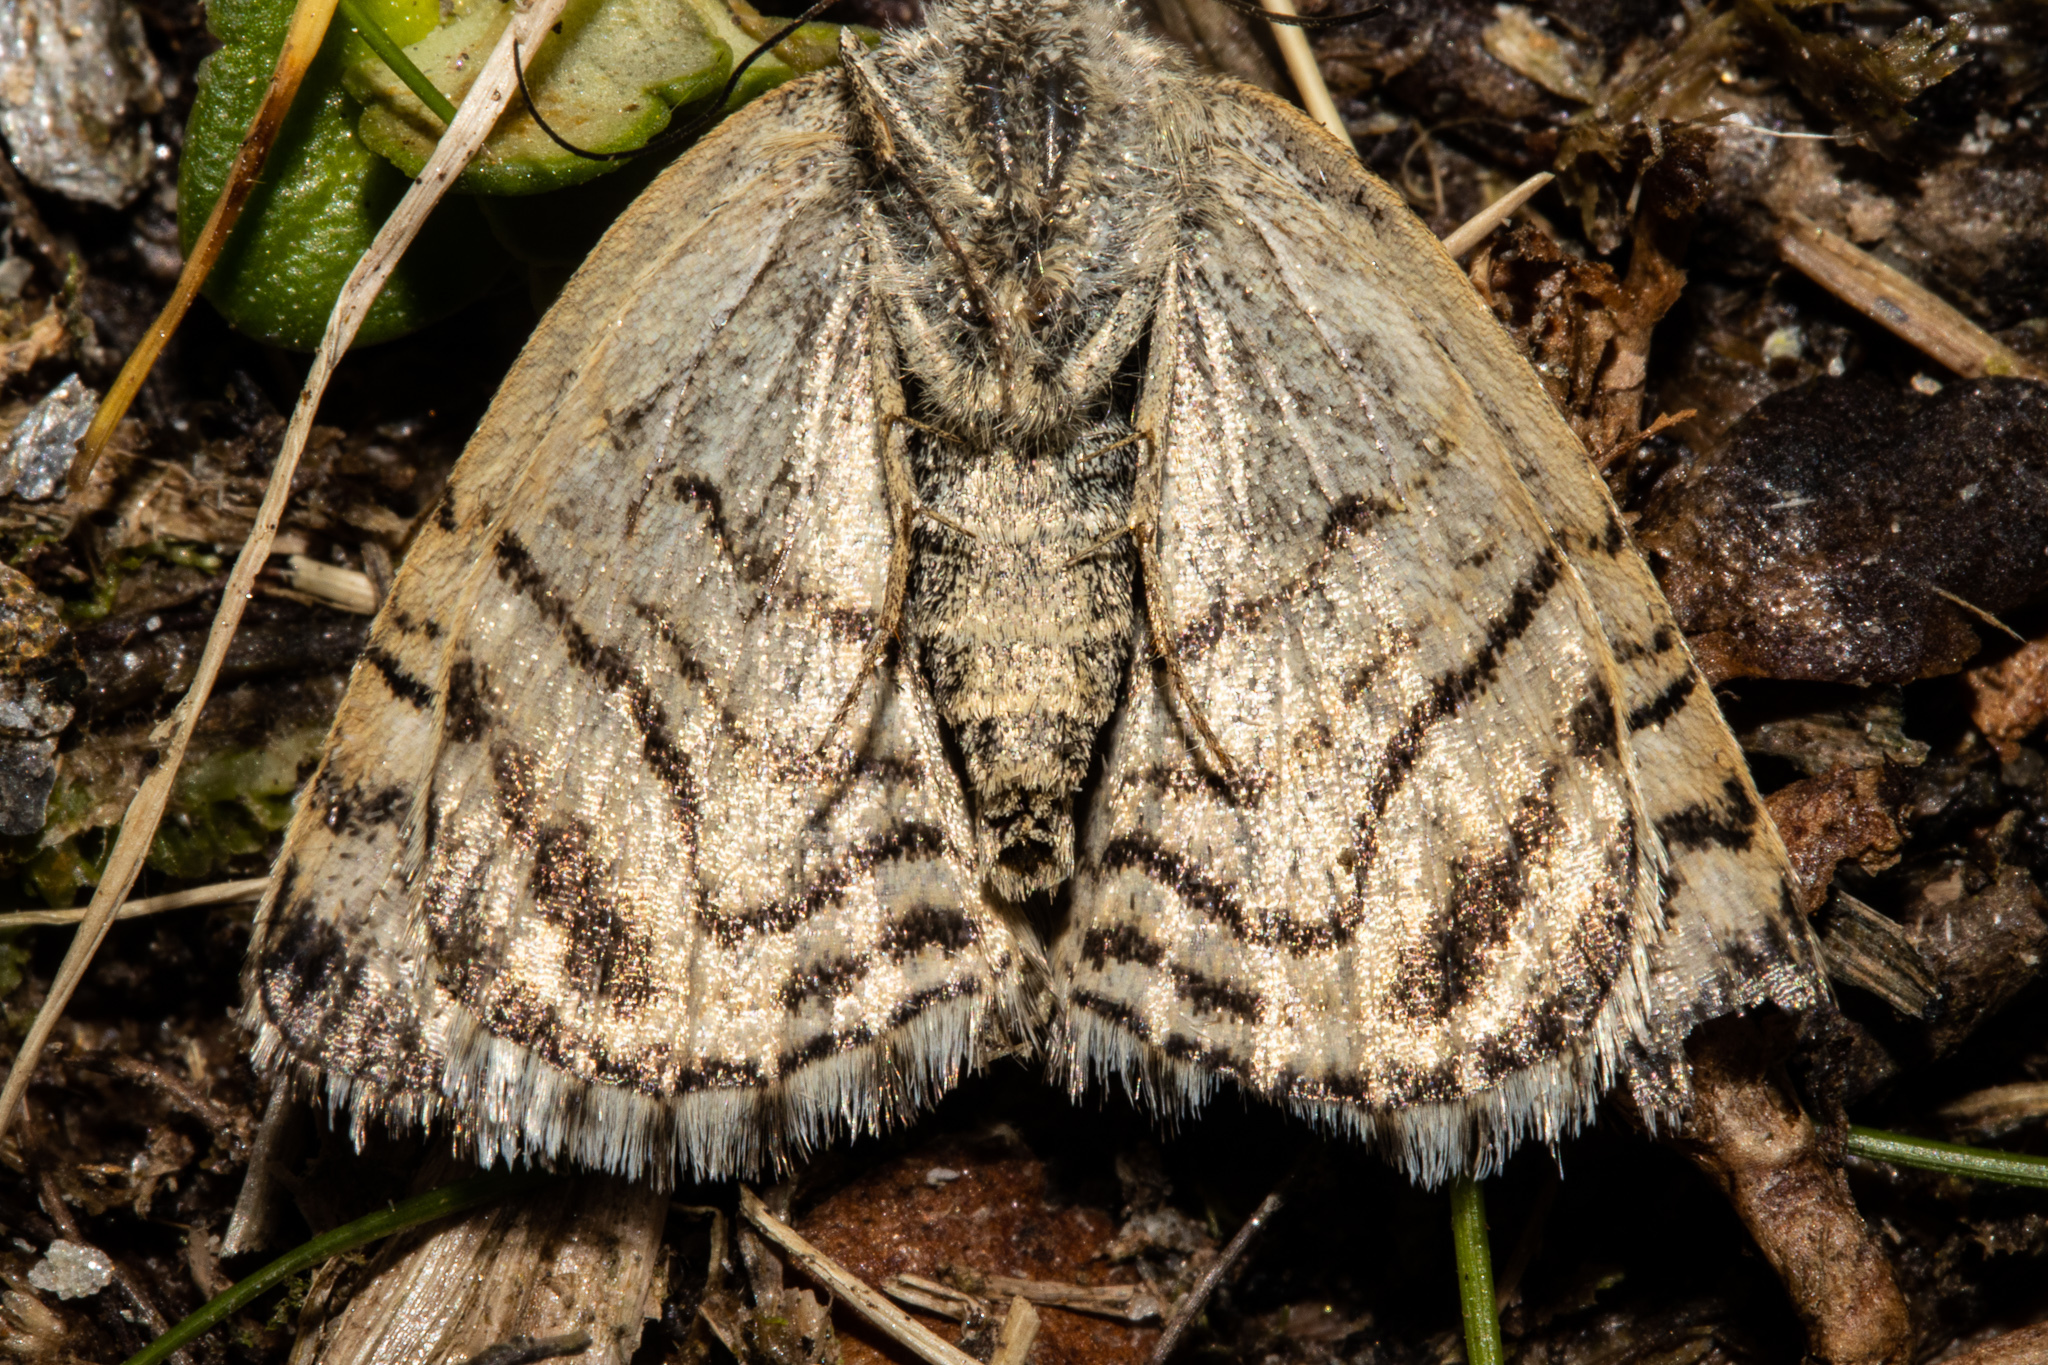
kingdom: Animalia
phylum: Arthropoda
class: Insecta
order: Lepidoptera
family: Geometridae
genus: Dasyuris
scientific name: Dasyuris austrina
